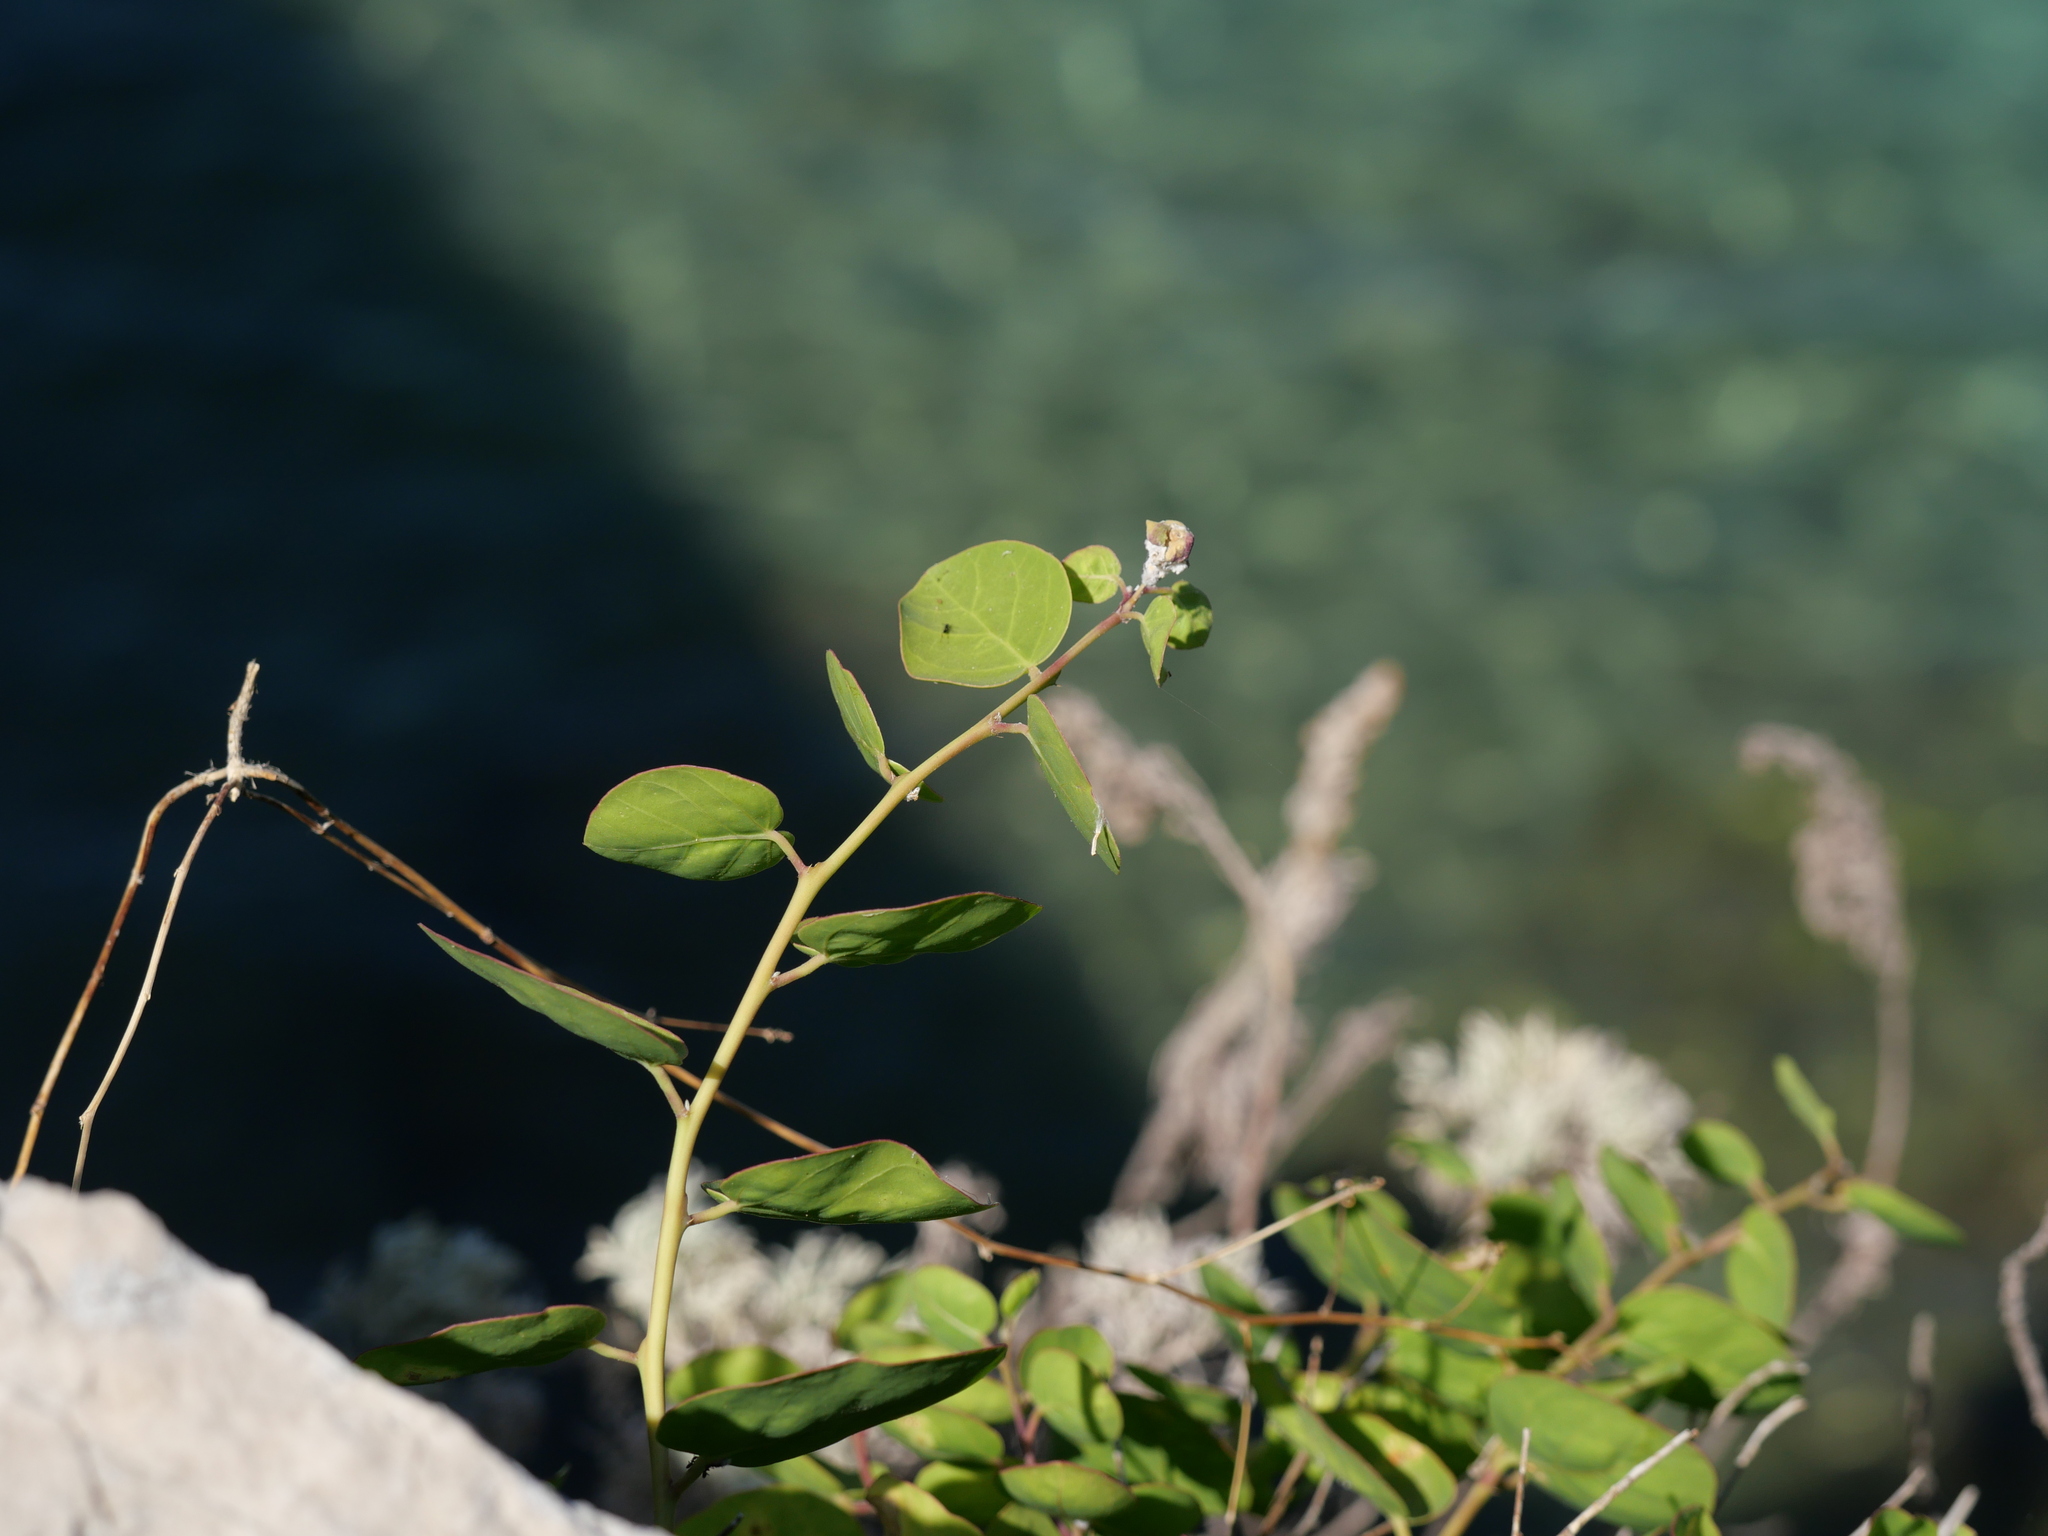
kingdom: Plantae
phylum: Tracheophyta
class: Magnoliopsida
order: Brassicales
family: Capparaceae
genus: Capparis
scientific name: Capparis orientalis
